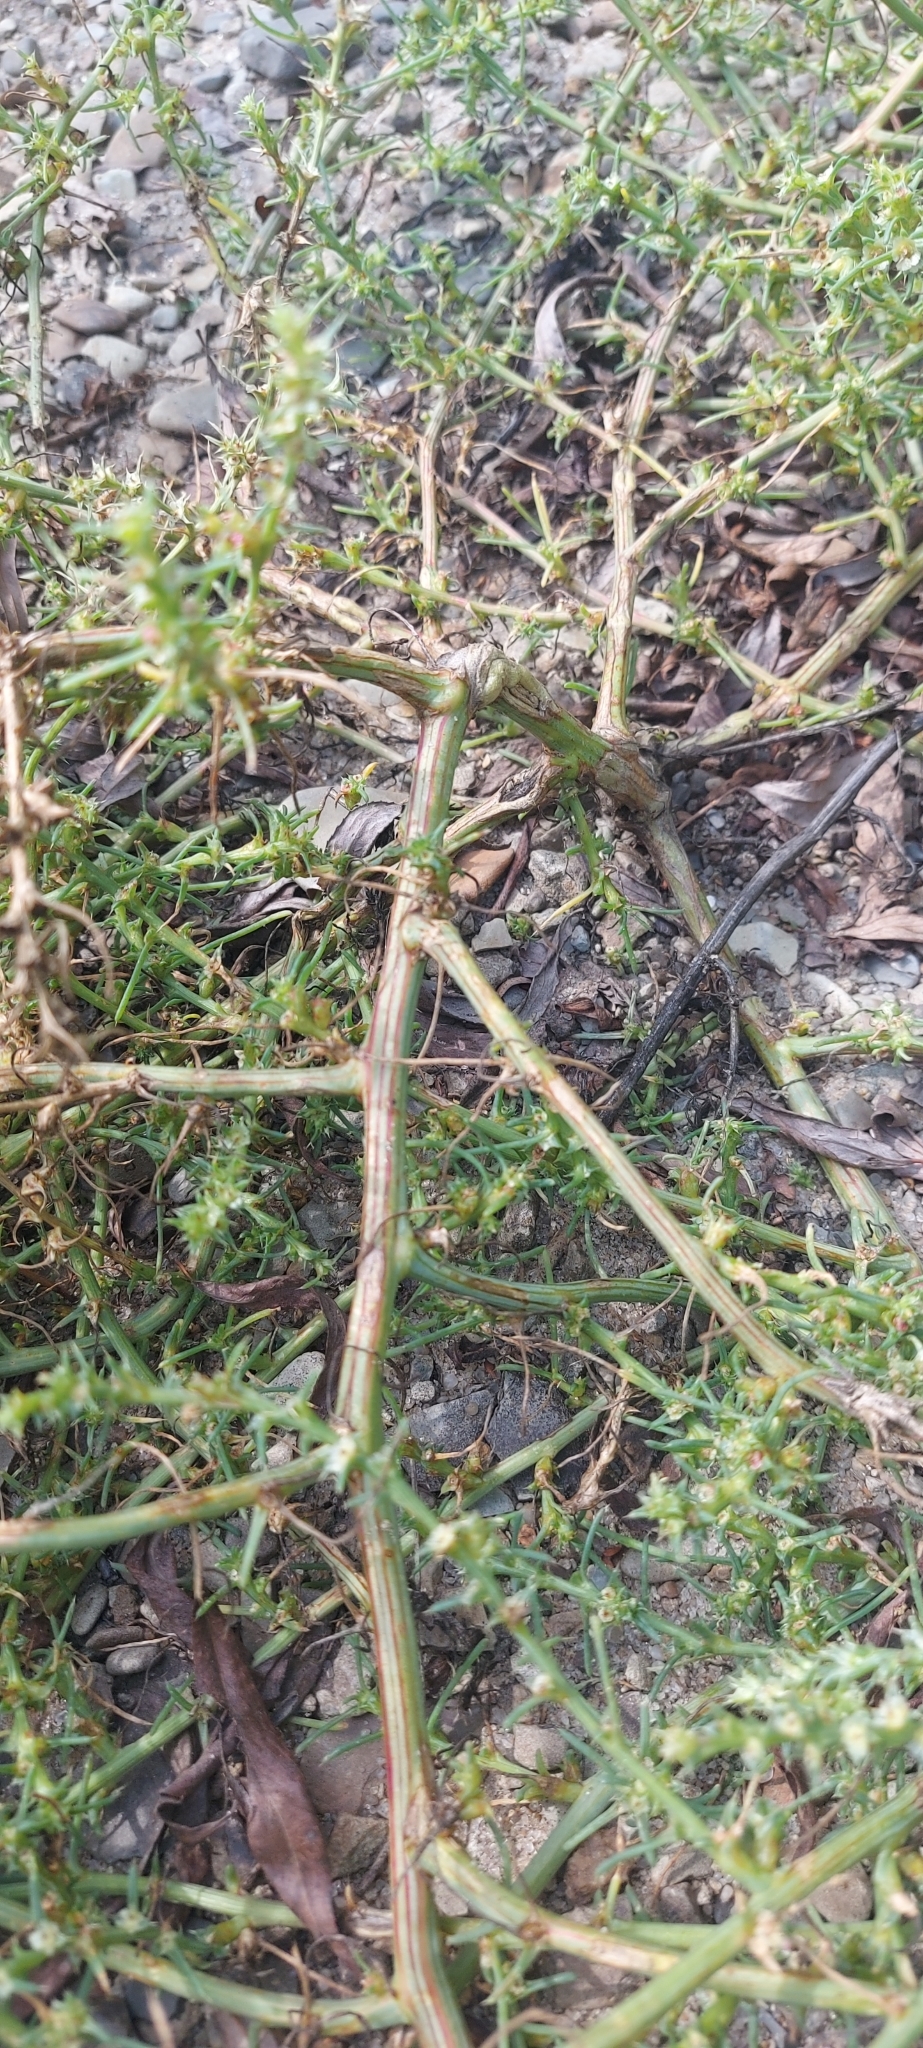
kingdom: Plantae
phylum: Tracheophyta
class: Magnoliopsida
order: Caryophyllales
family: Amaranthaceae
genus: Salsola
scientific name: Salsola tragus
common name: Prickly russian thistle
